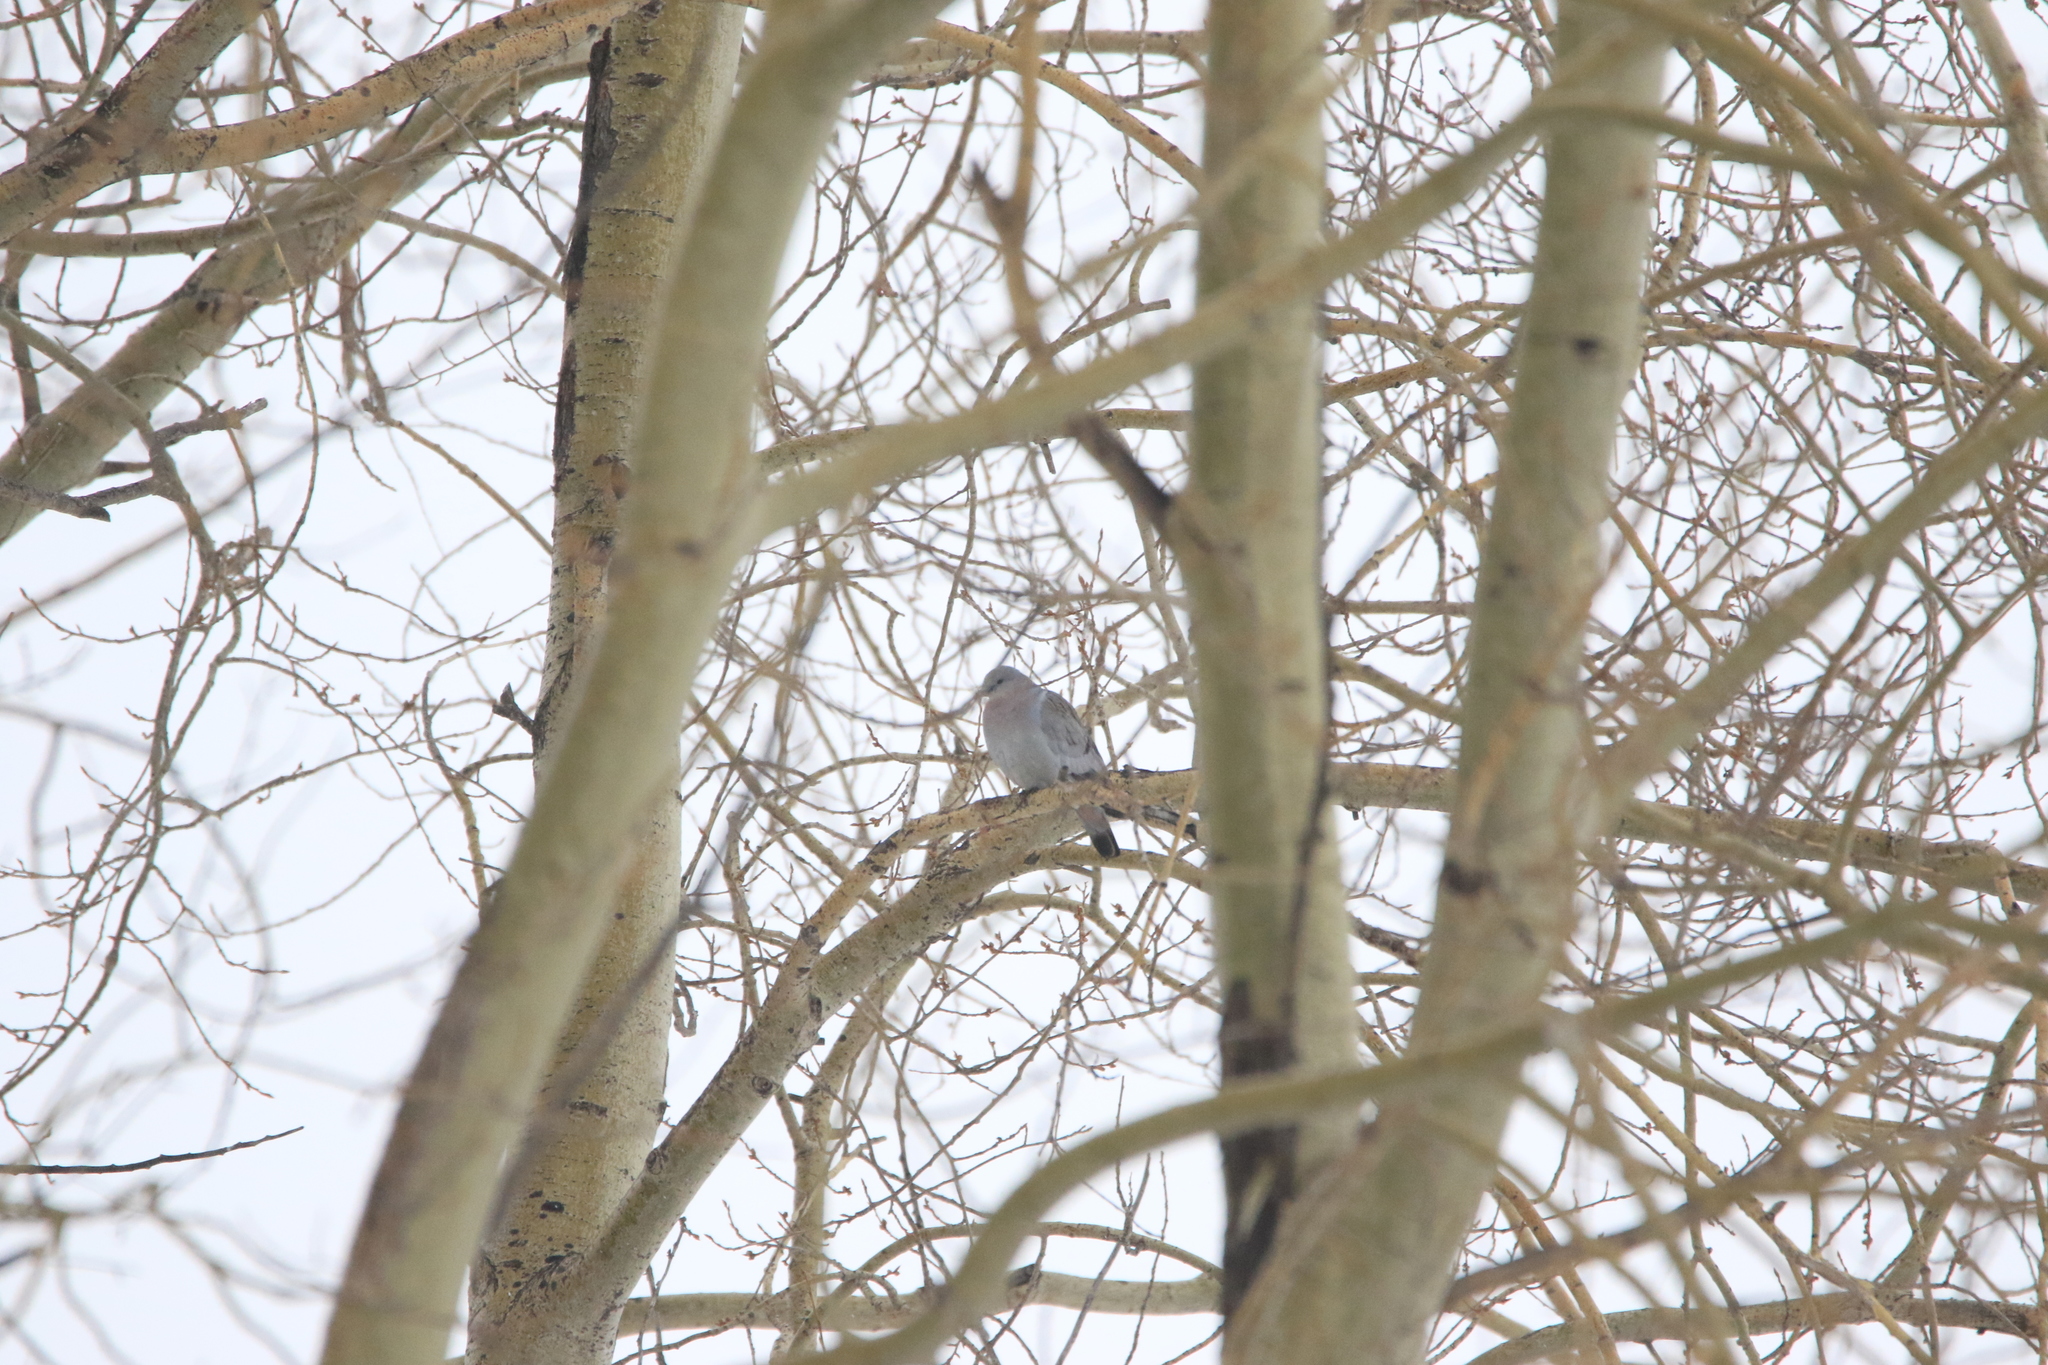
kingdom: Animalia
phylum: Chordata
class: Aves
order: Columbiformes
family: Columbidae
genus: Columba
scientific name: Columba oenas
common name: Stock dove
